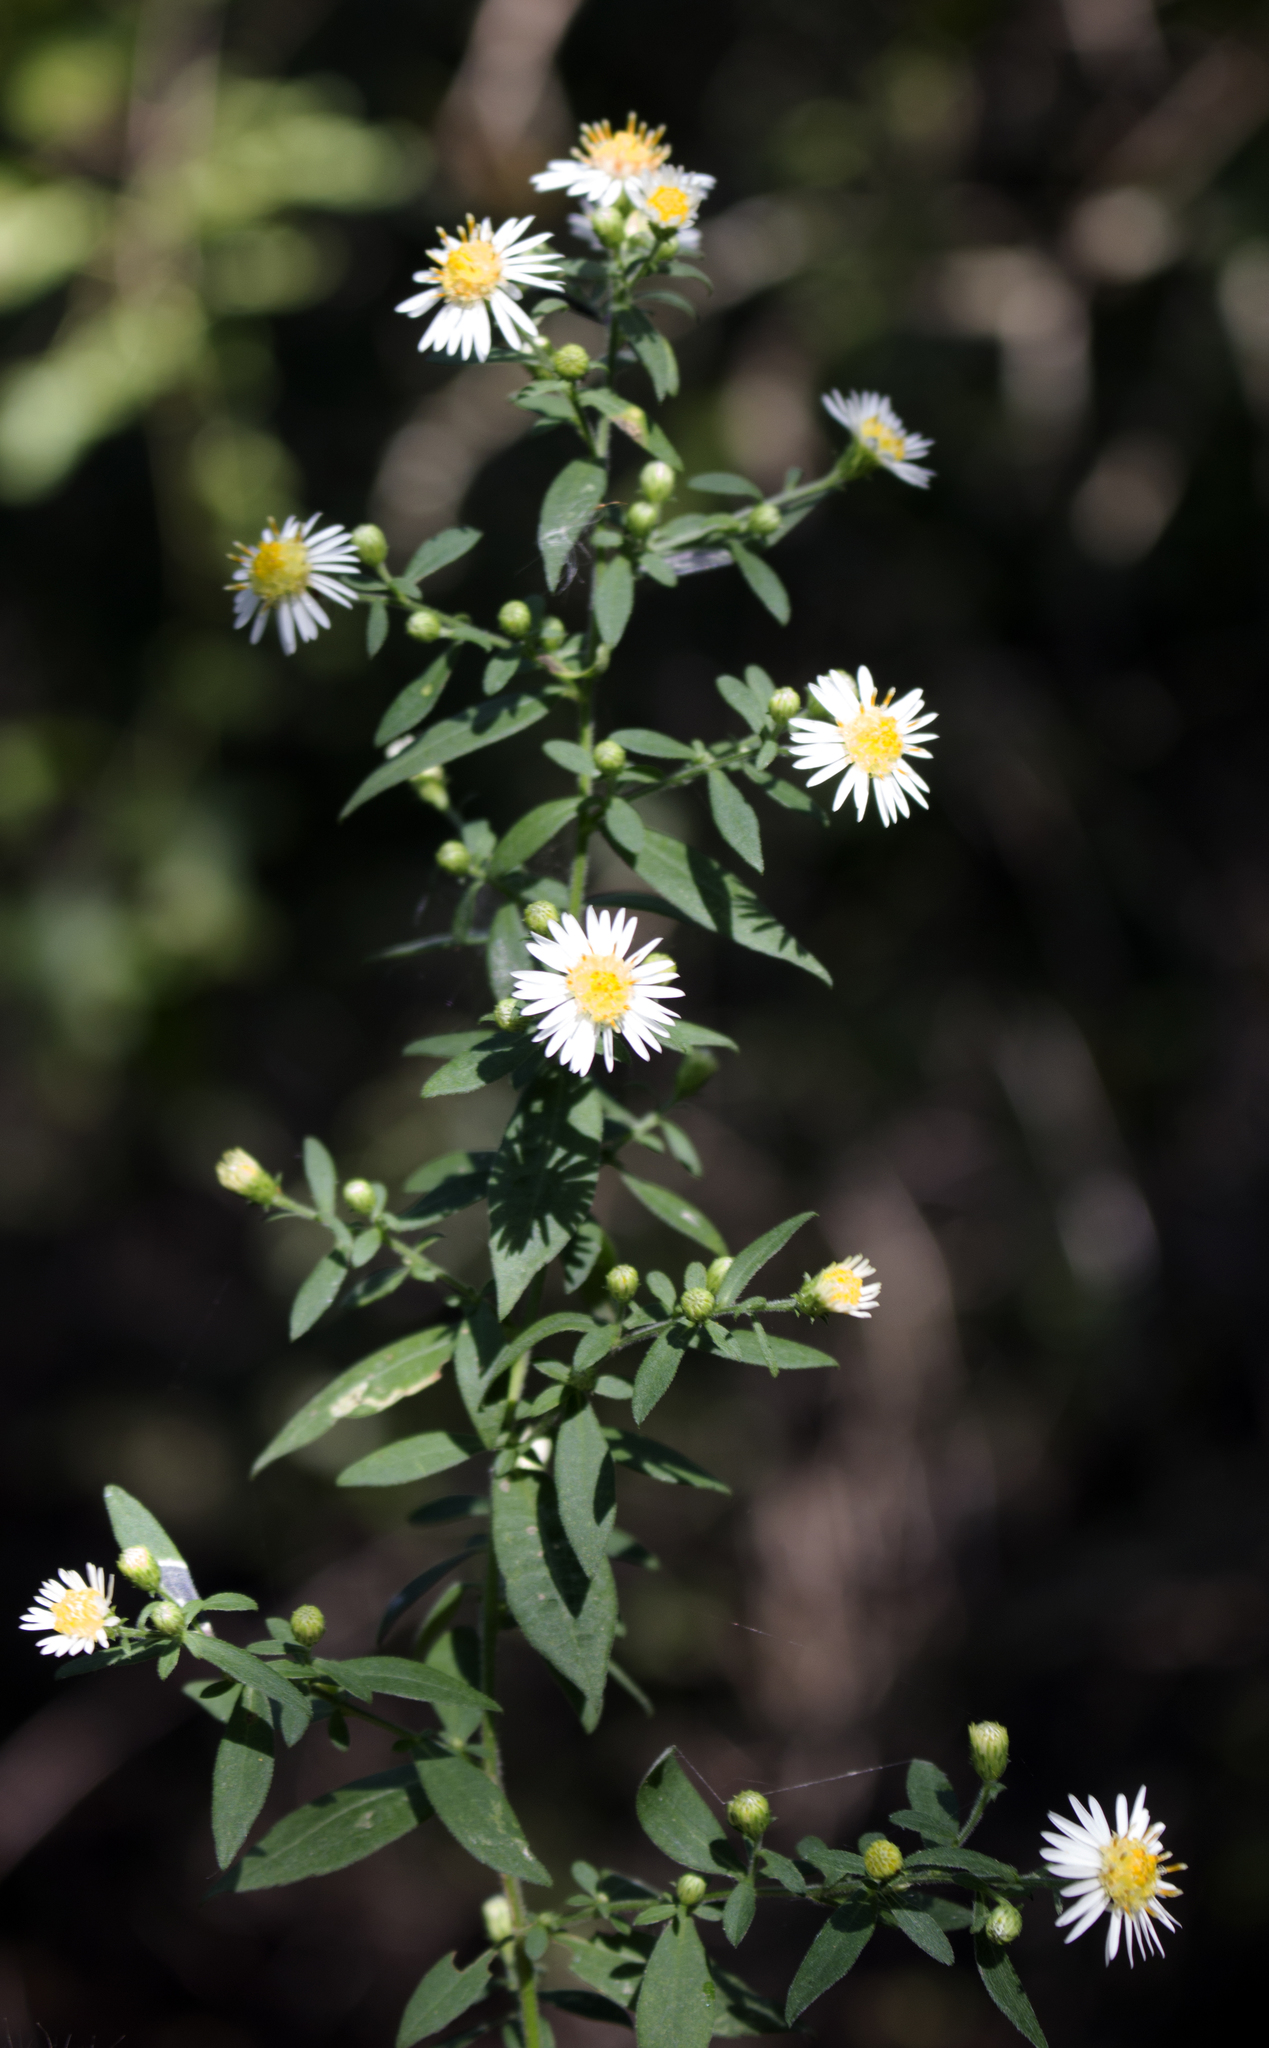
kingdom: Plantae
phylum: Tracheophyta
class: Magnoliopsida
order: Asterales
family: Asteraceae
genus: Symphyotrichum
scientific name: Symphyotrichum ontarionis
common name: Bottomland aster
